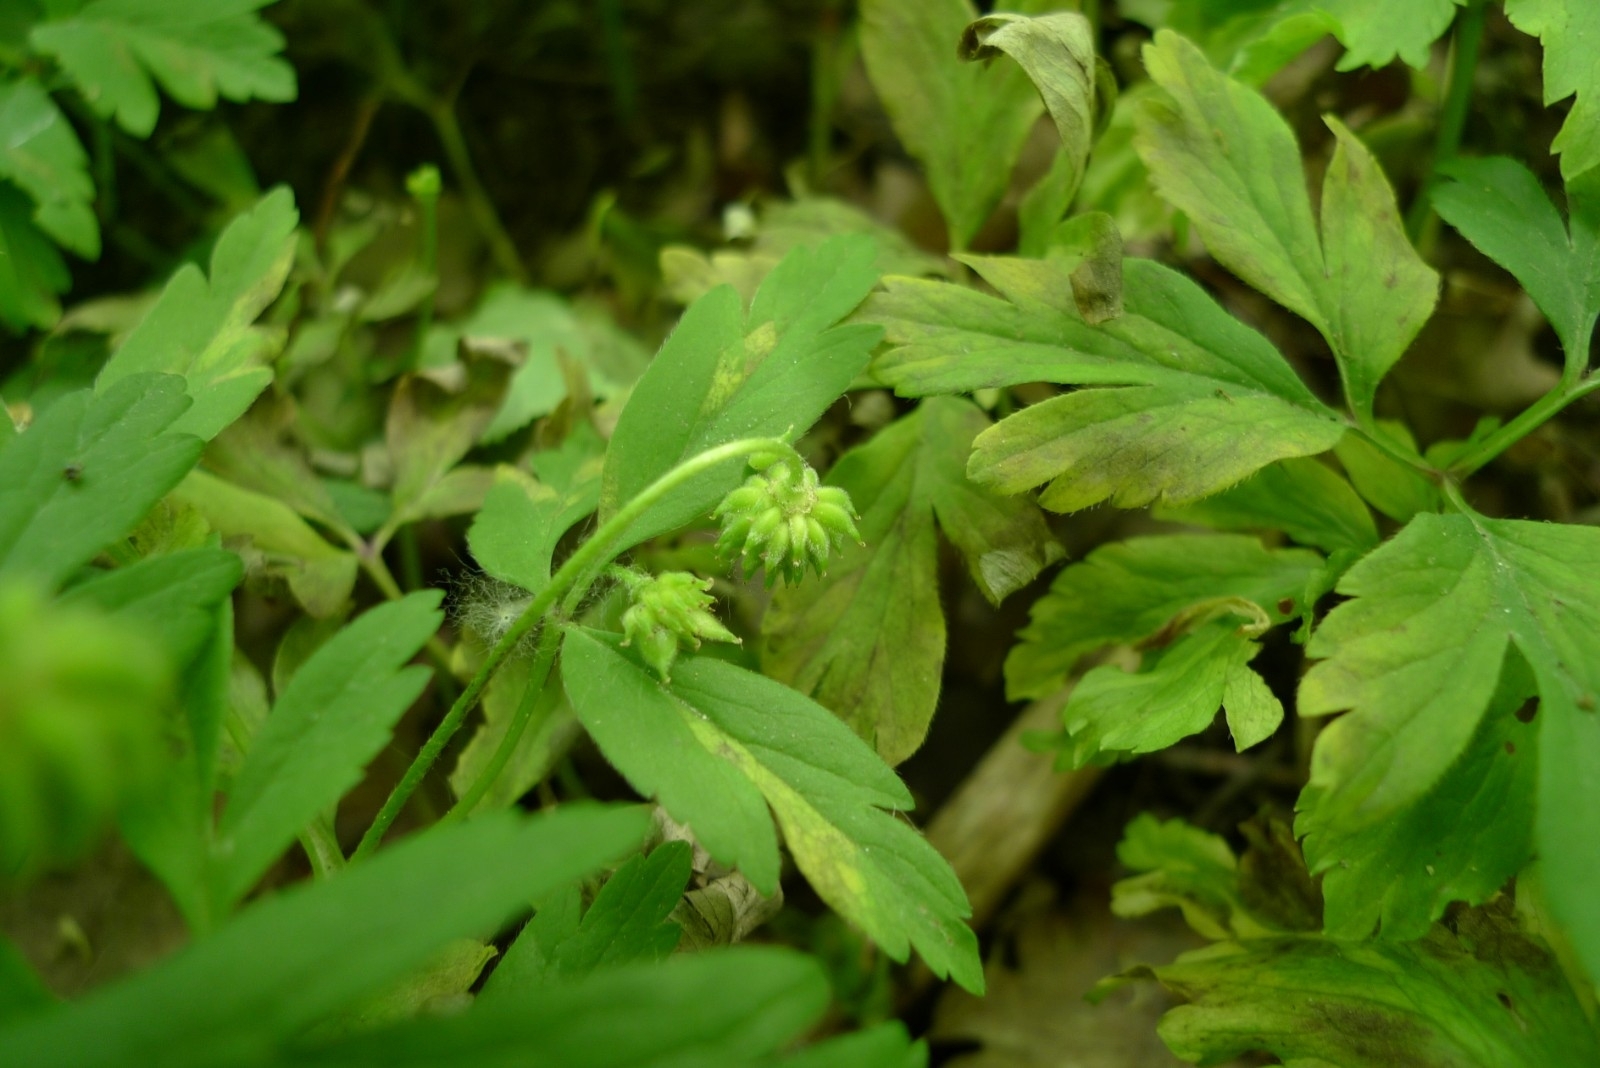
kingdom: Plantae
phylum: Tracheophyta
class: Magnoliopsida
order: Ranunculales
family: Ranunculaceae
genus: Anemone
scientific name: Anemone nemorosa
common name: Wood anemone
